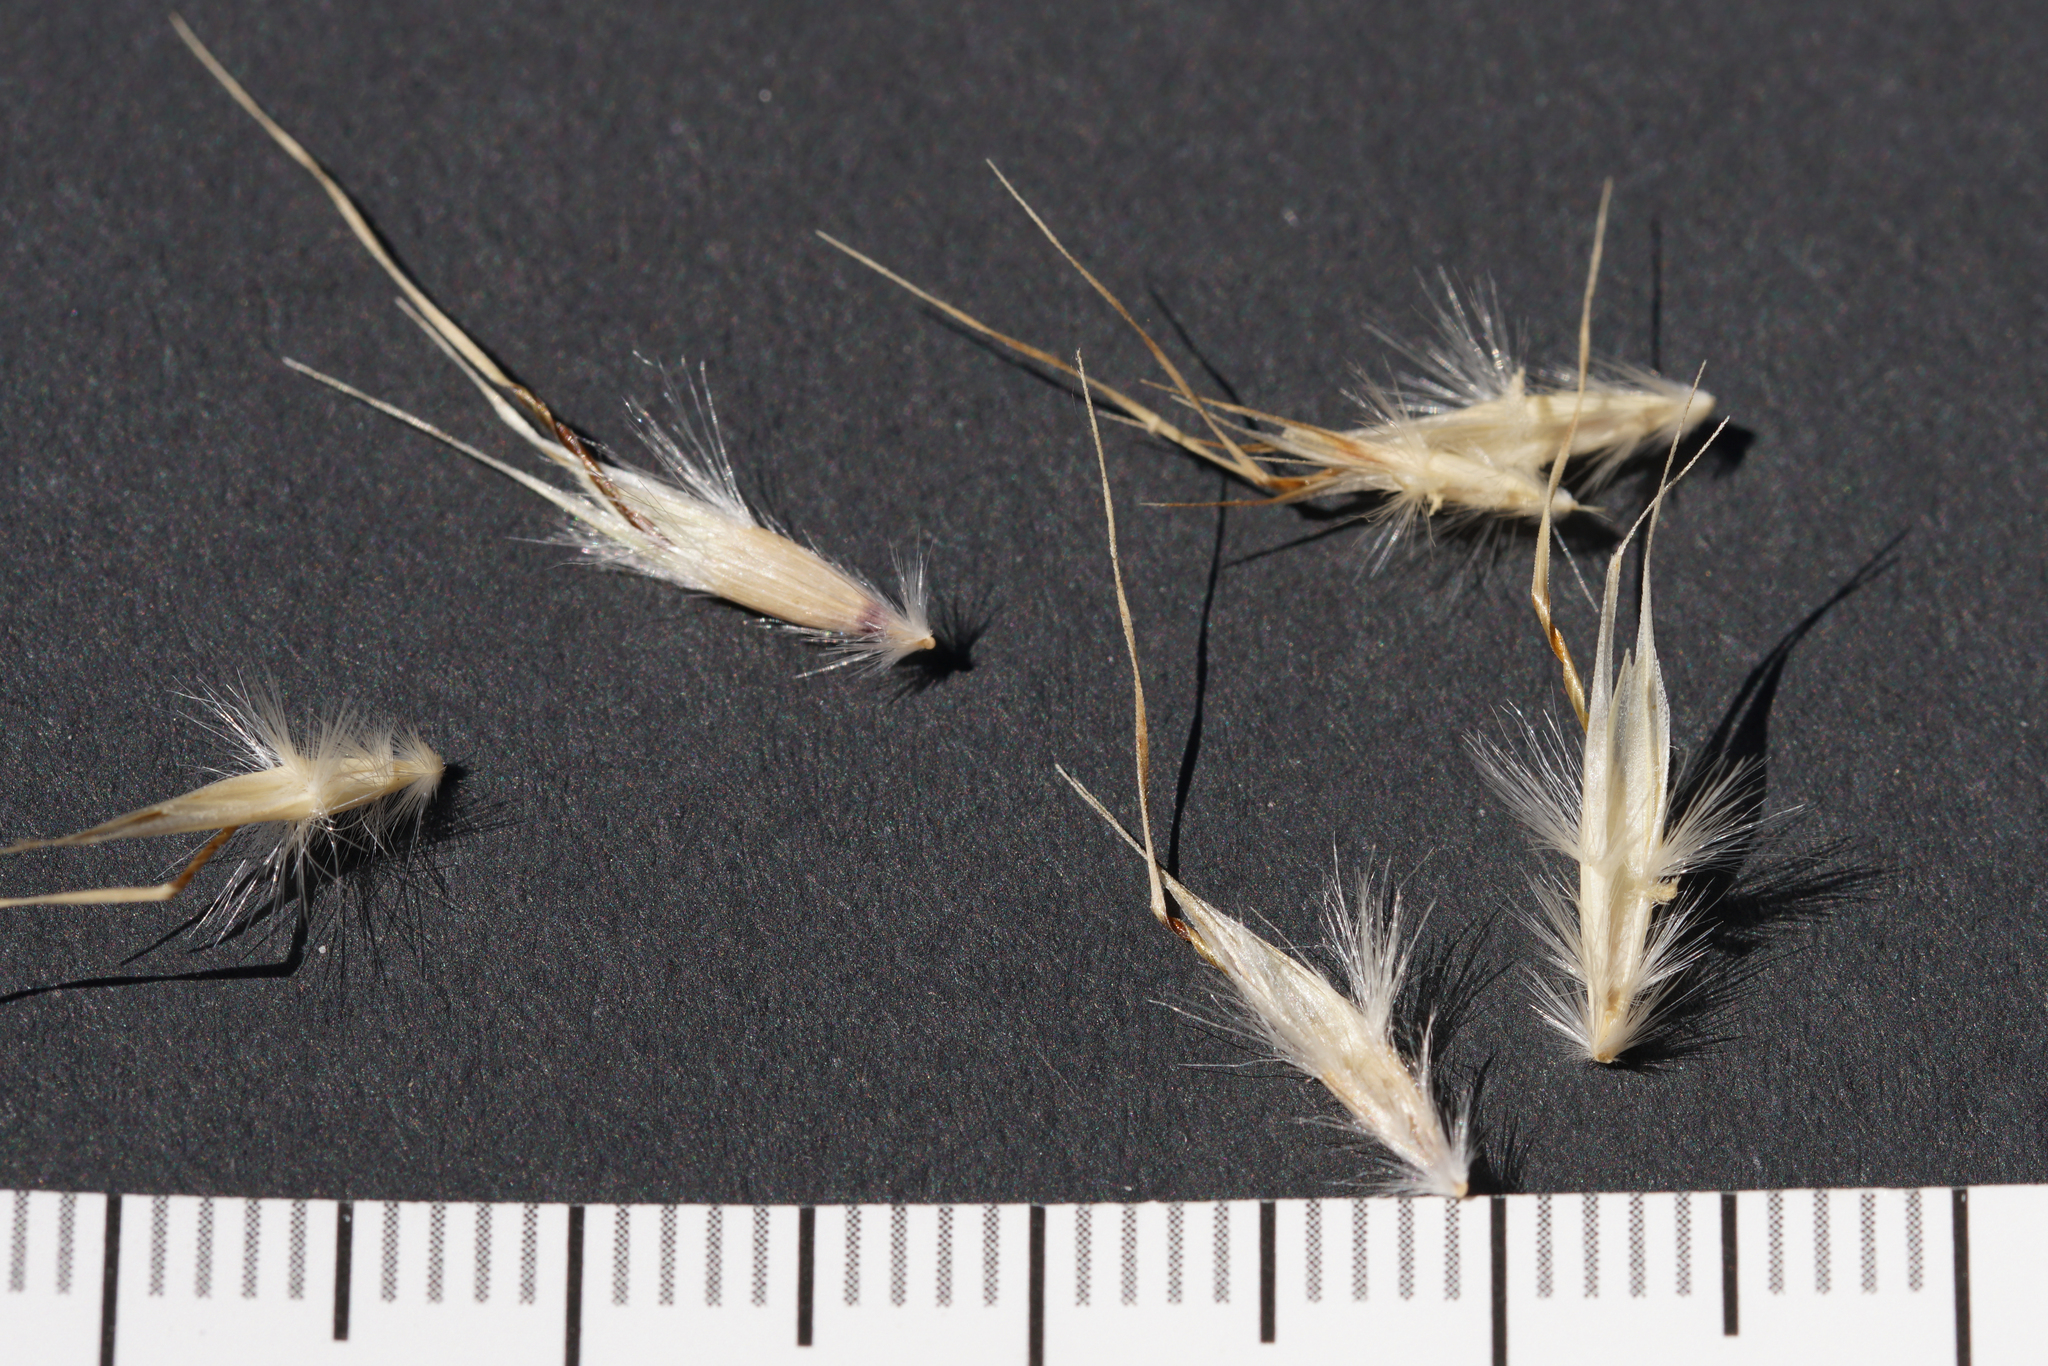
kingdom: Plantae
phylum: Tracheophyta
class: Liliopsida
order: Poales
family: Poaceae
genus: Rytidosperma
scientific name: Rytidosperma caespitosum
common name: Tufted wallaby grass
